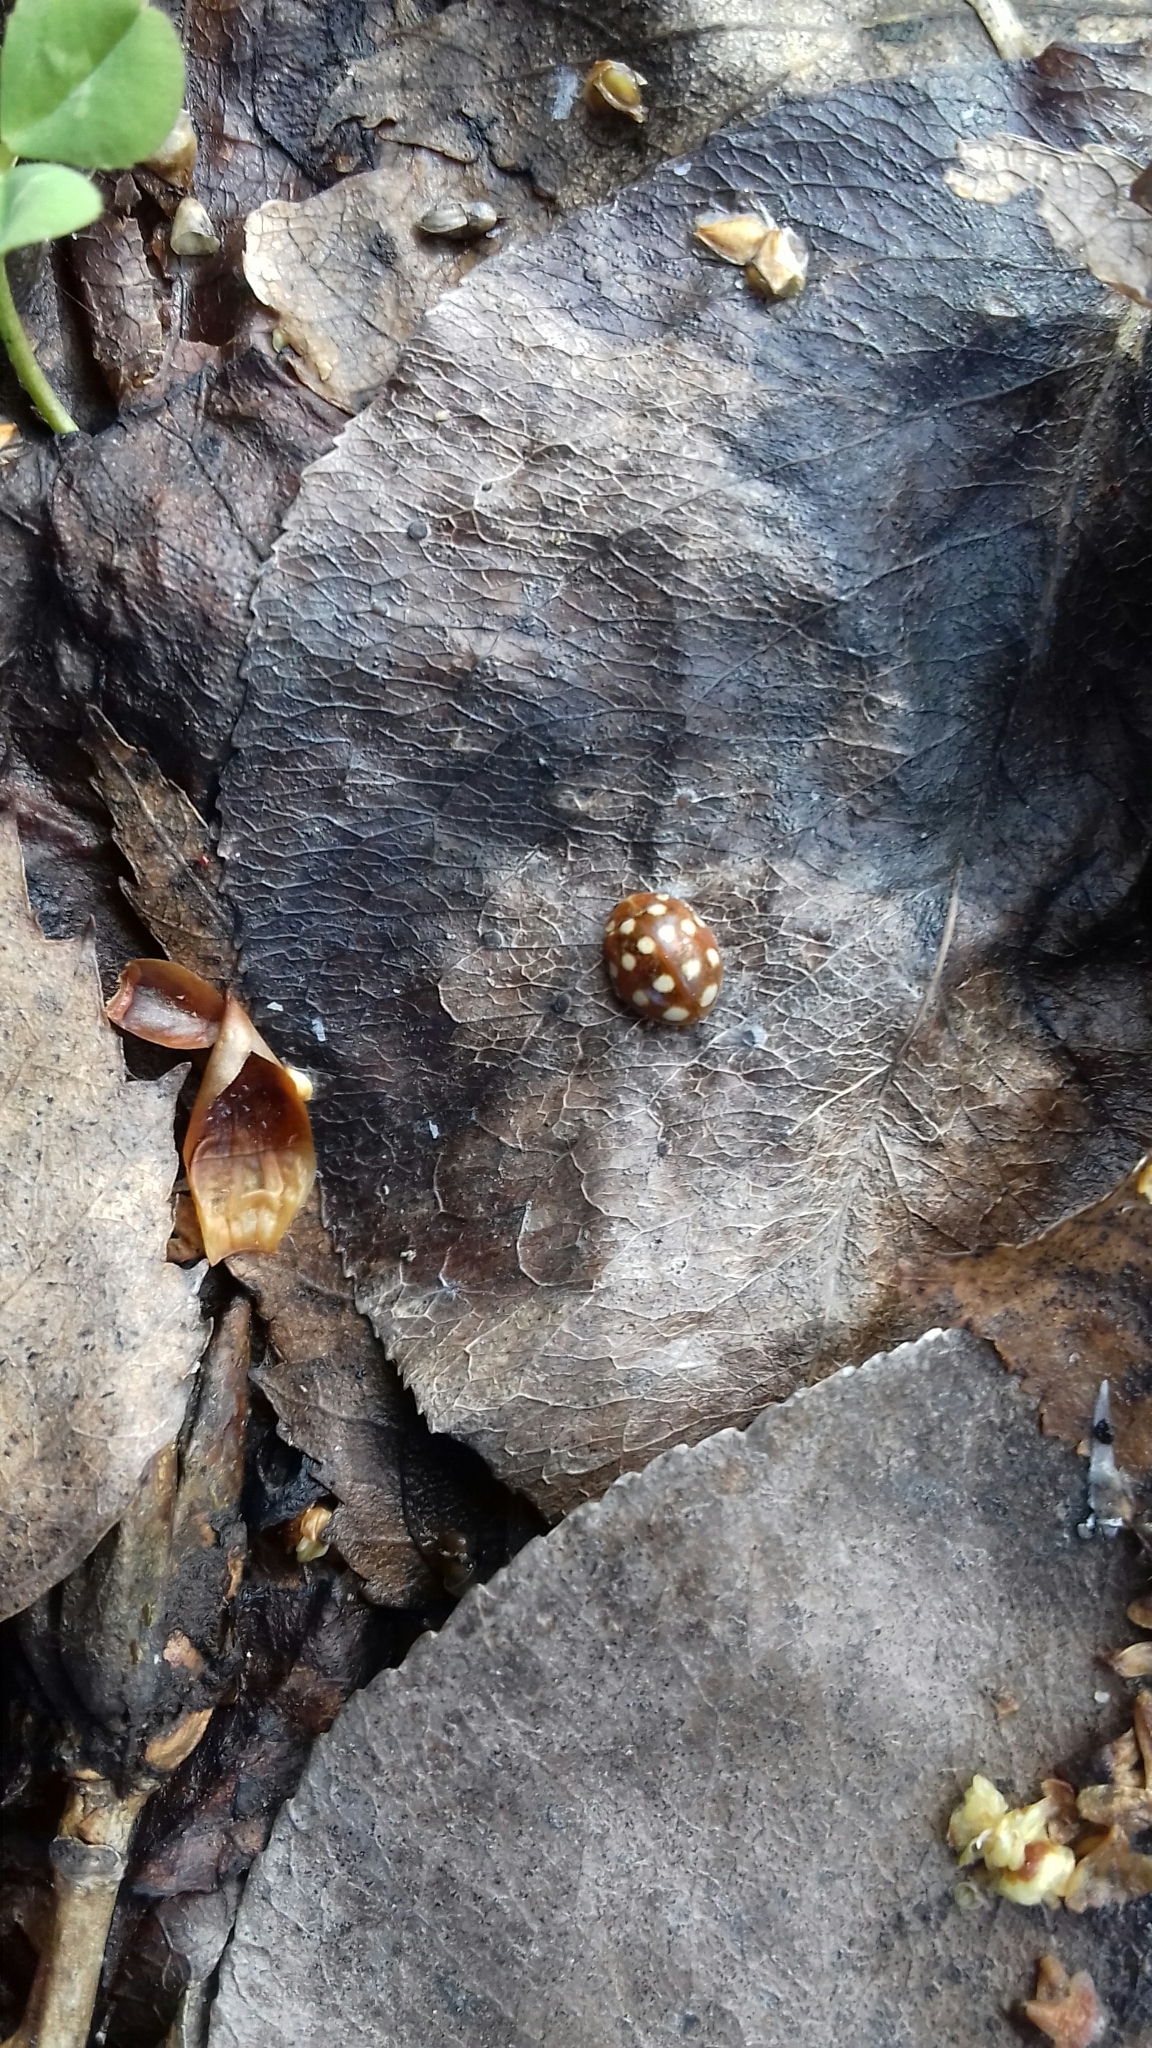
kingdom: Animalia
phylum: Arthropoda
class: Insecta
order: Coleoptera
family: Coccinellidae
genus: Calvia
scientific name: Calvia quatuordecimguttata
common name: Cream-spot ladybird
